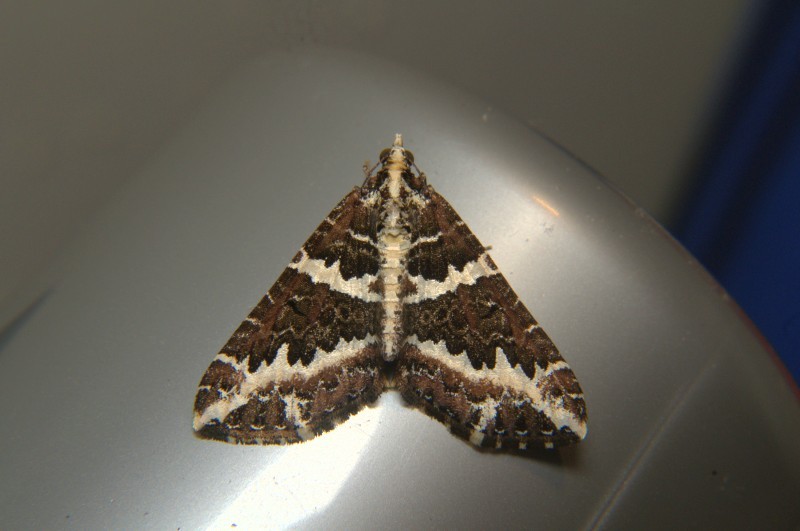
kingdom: Animalia
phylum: Arthropoda
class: Insecta
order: Lepidoptera
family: Geometridae
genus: Electrophaes
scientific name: Electrophaes niveonotata
